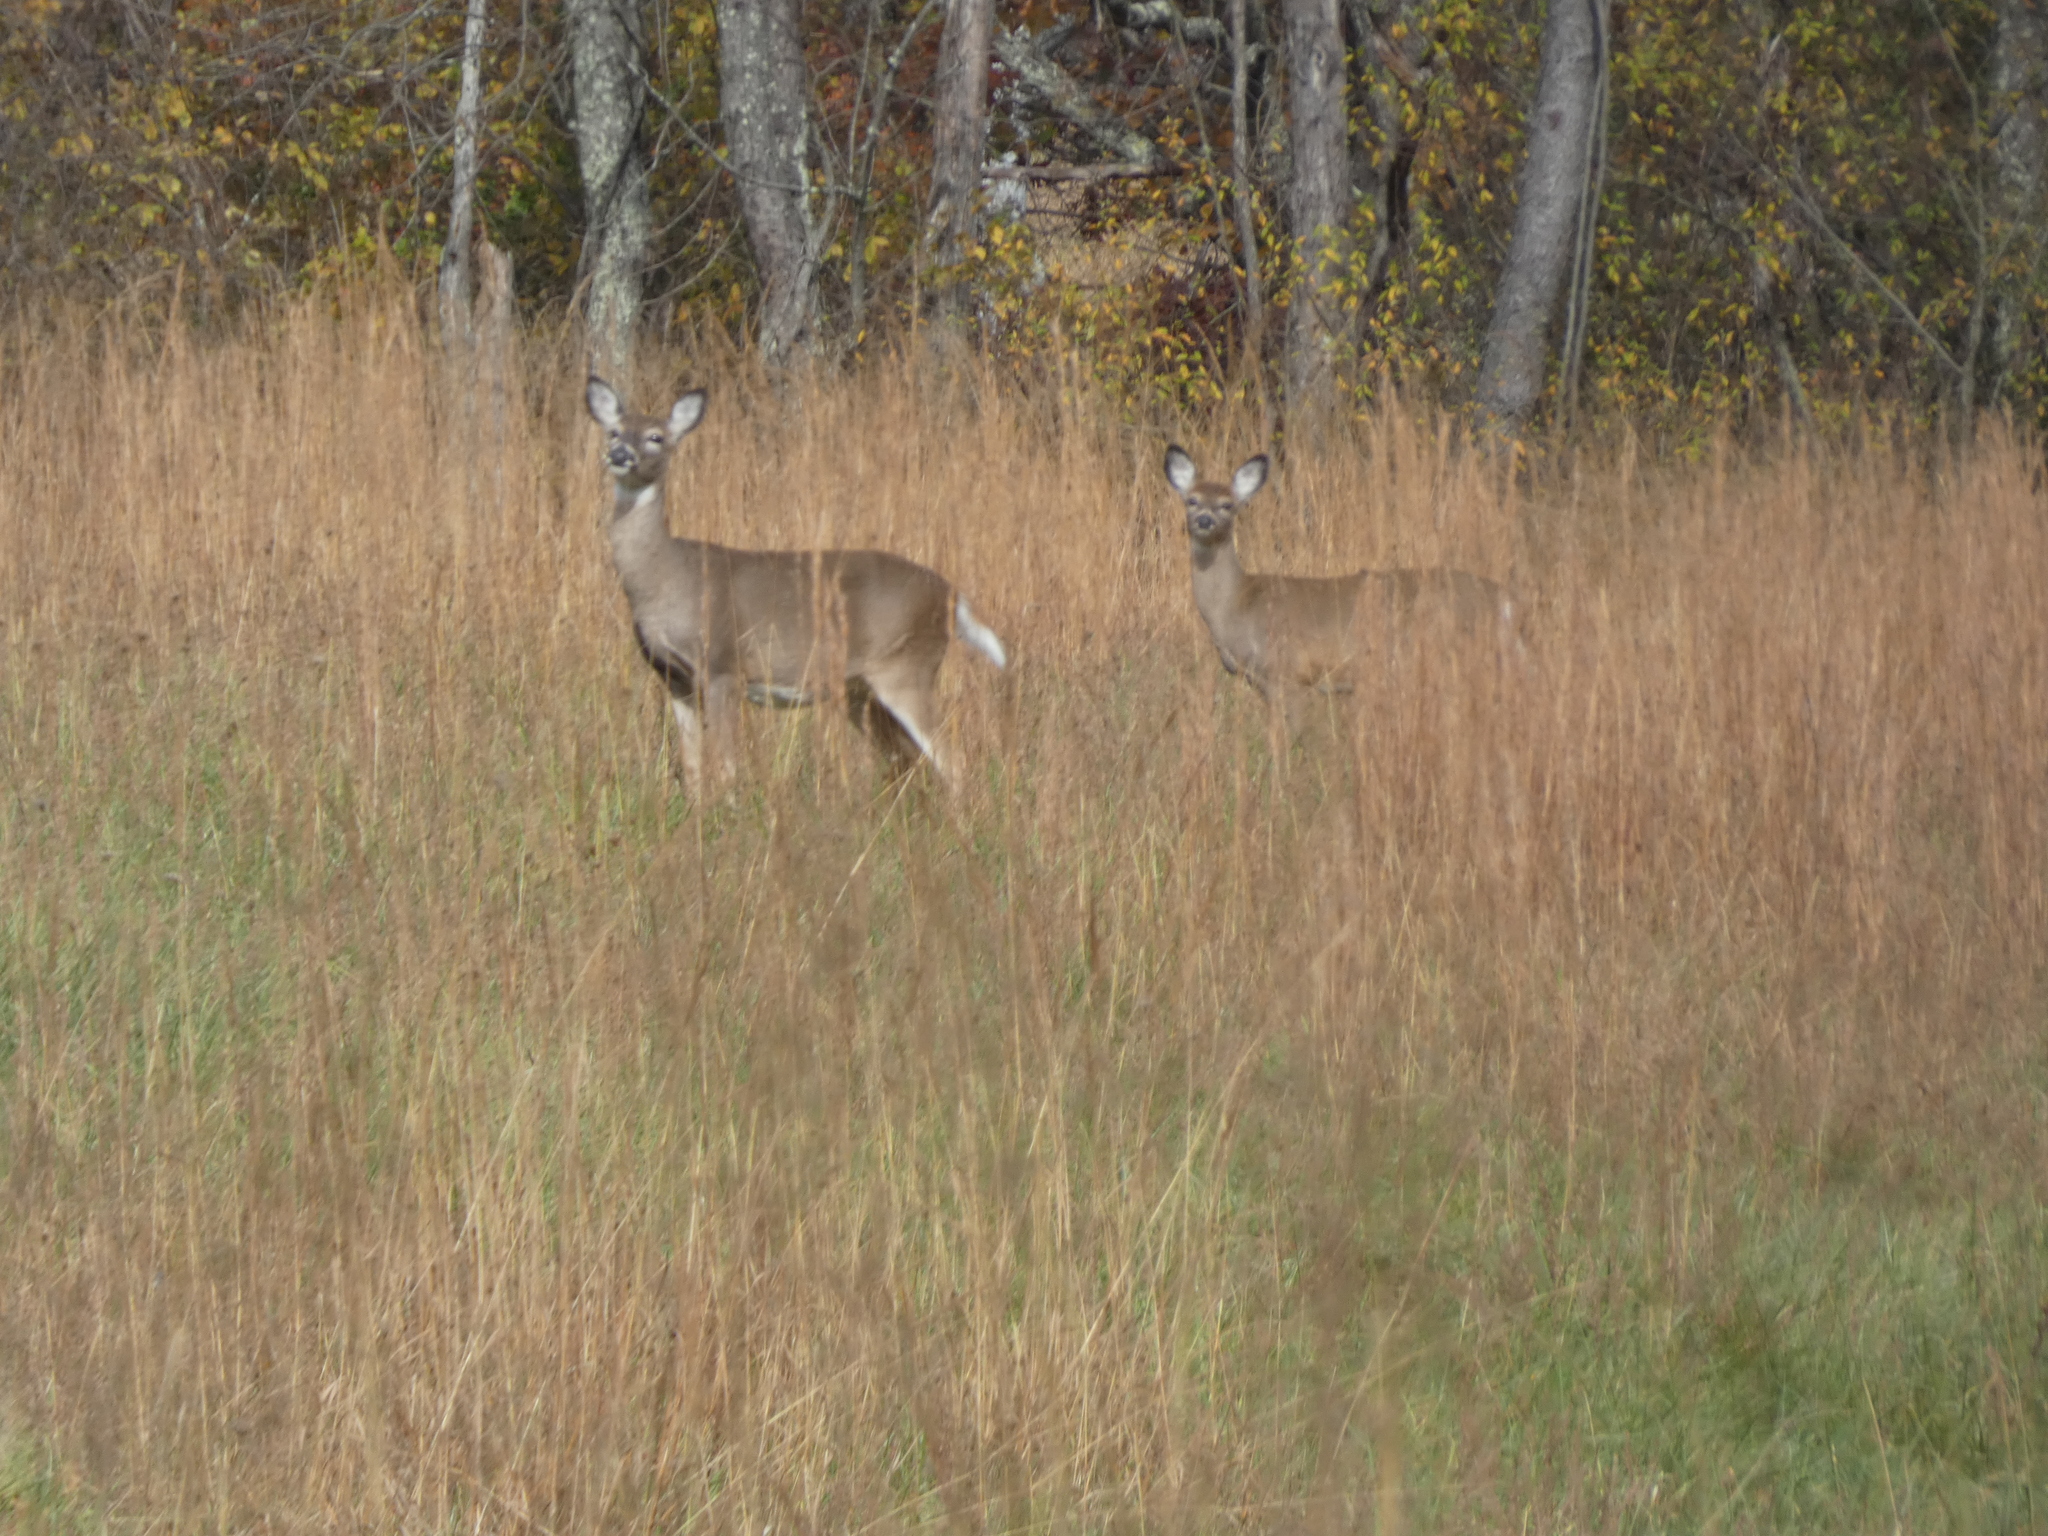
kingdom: Animalia
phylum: Chordata
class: Mammalia
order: Artiodactyla
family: Cervidae
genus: Odocoileus
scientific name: Odocoileus virginianus
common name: White-tailed deer
